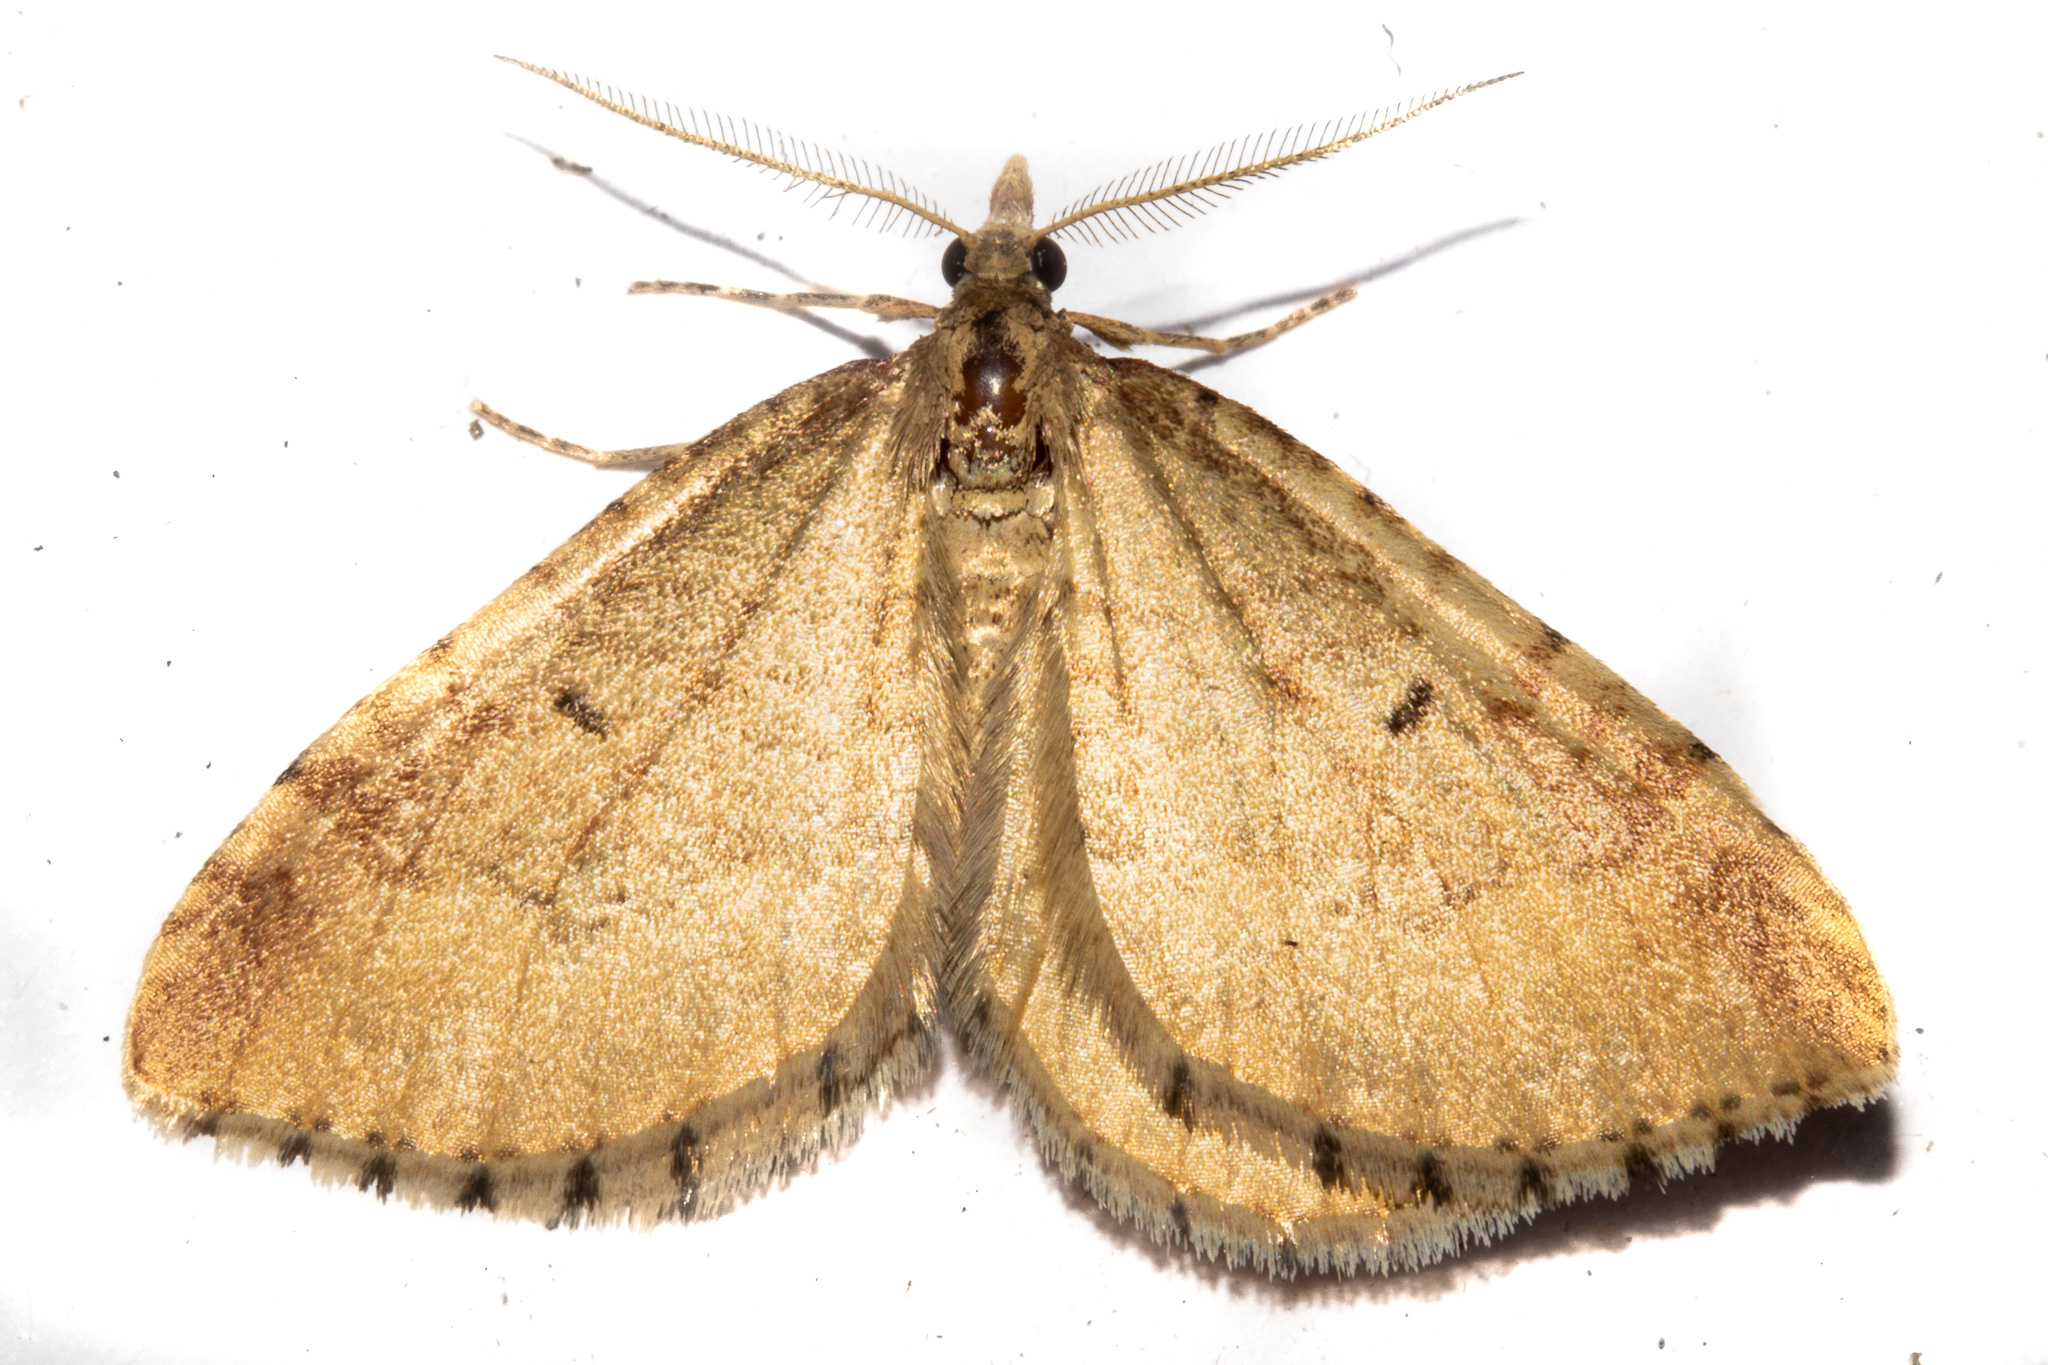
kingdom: Animalia
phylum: Arthropoda
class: Insecta
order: Lepidoptera
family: Geometridae
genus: Asaphodes
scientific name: Asaphodes aegrota
